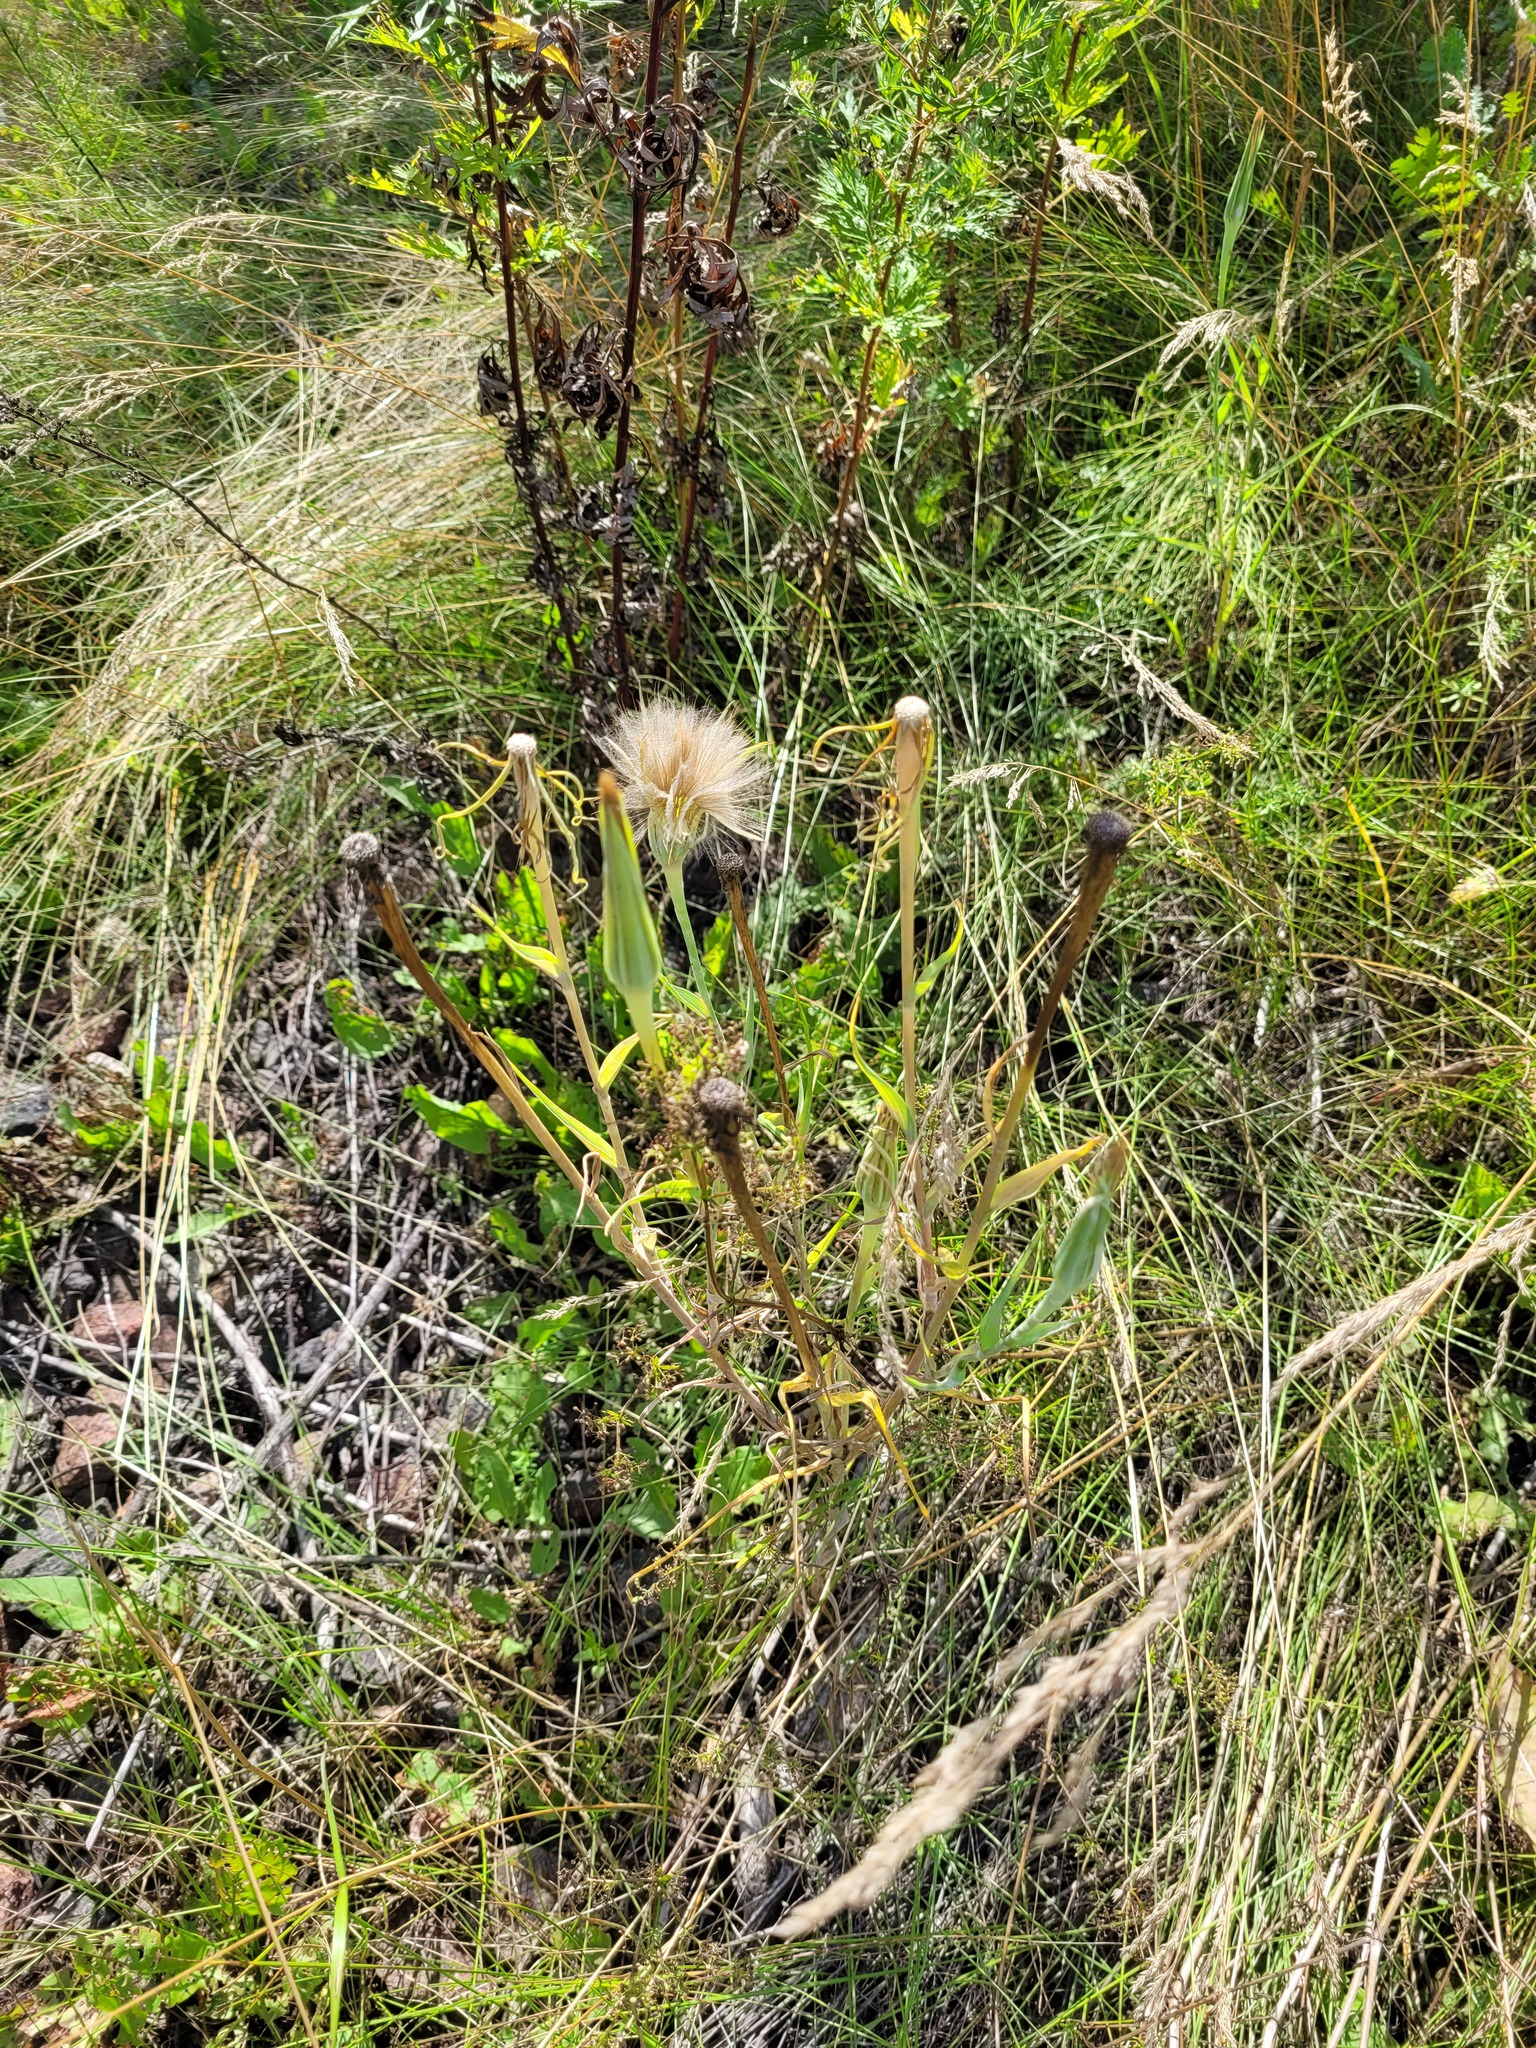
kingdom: Plantae
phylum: Tracheophyta
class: Magnoliopsida
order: Asterales
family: Asteraceae
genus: Tragopogon
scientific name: Tragopogon dubius
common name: Yellow salsify
